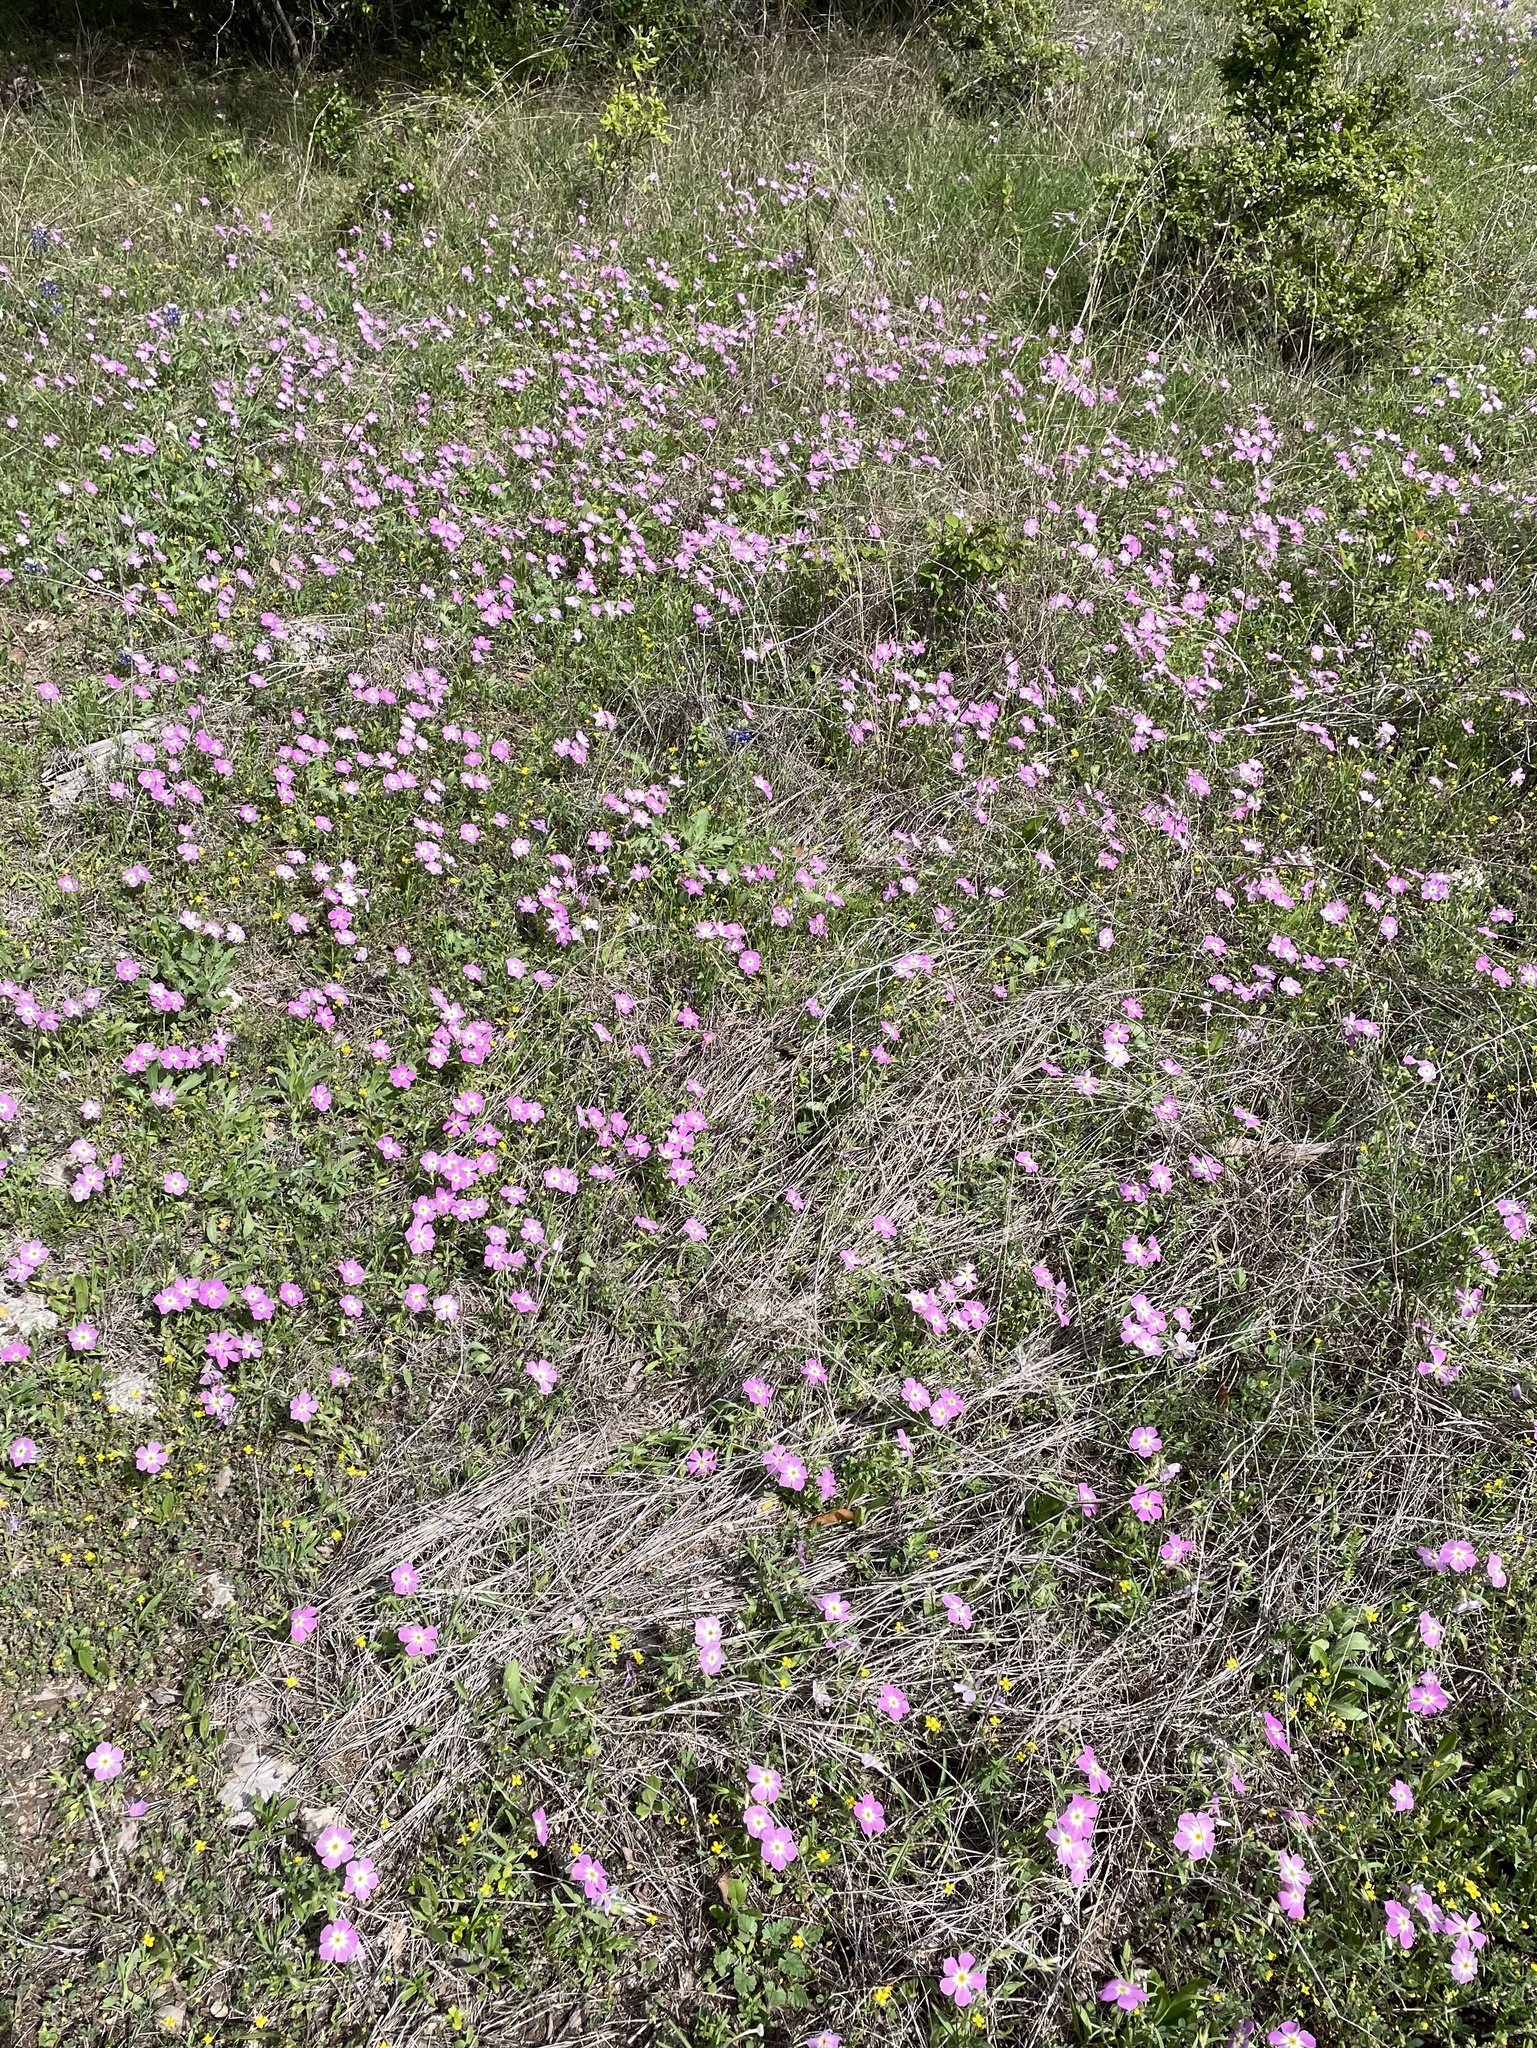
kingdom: Plantae
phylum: Tracheophyta
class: Magnoliopsida
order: Ericales
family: Polemoniaceae
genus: Phlox
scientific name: Phlox roemeriana
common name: Roemer's phlox
